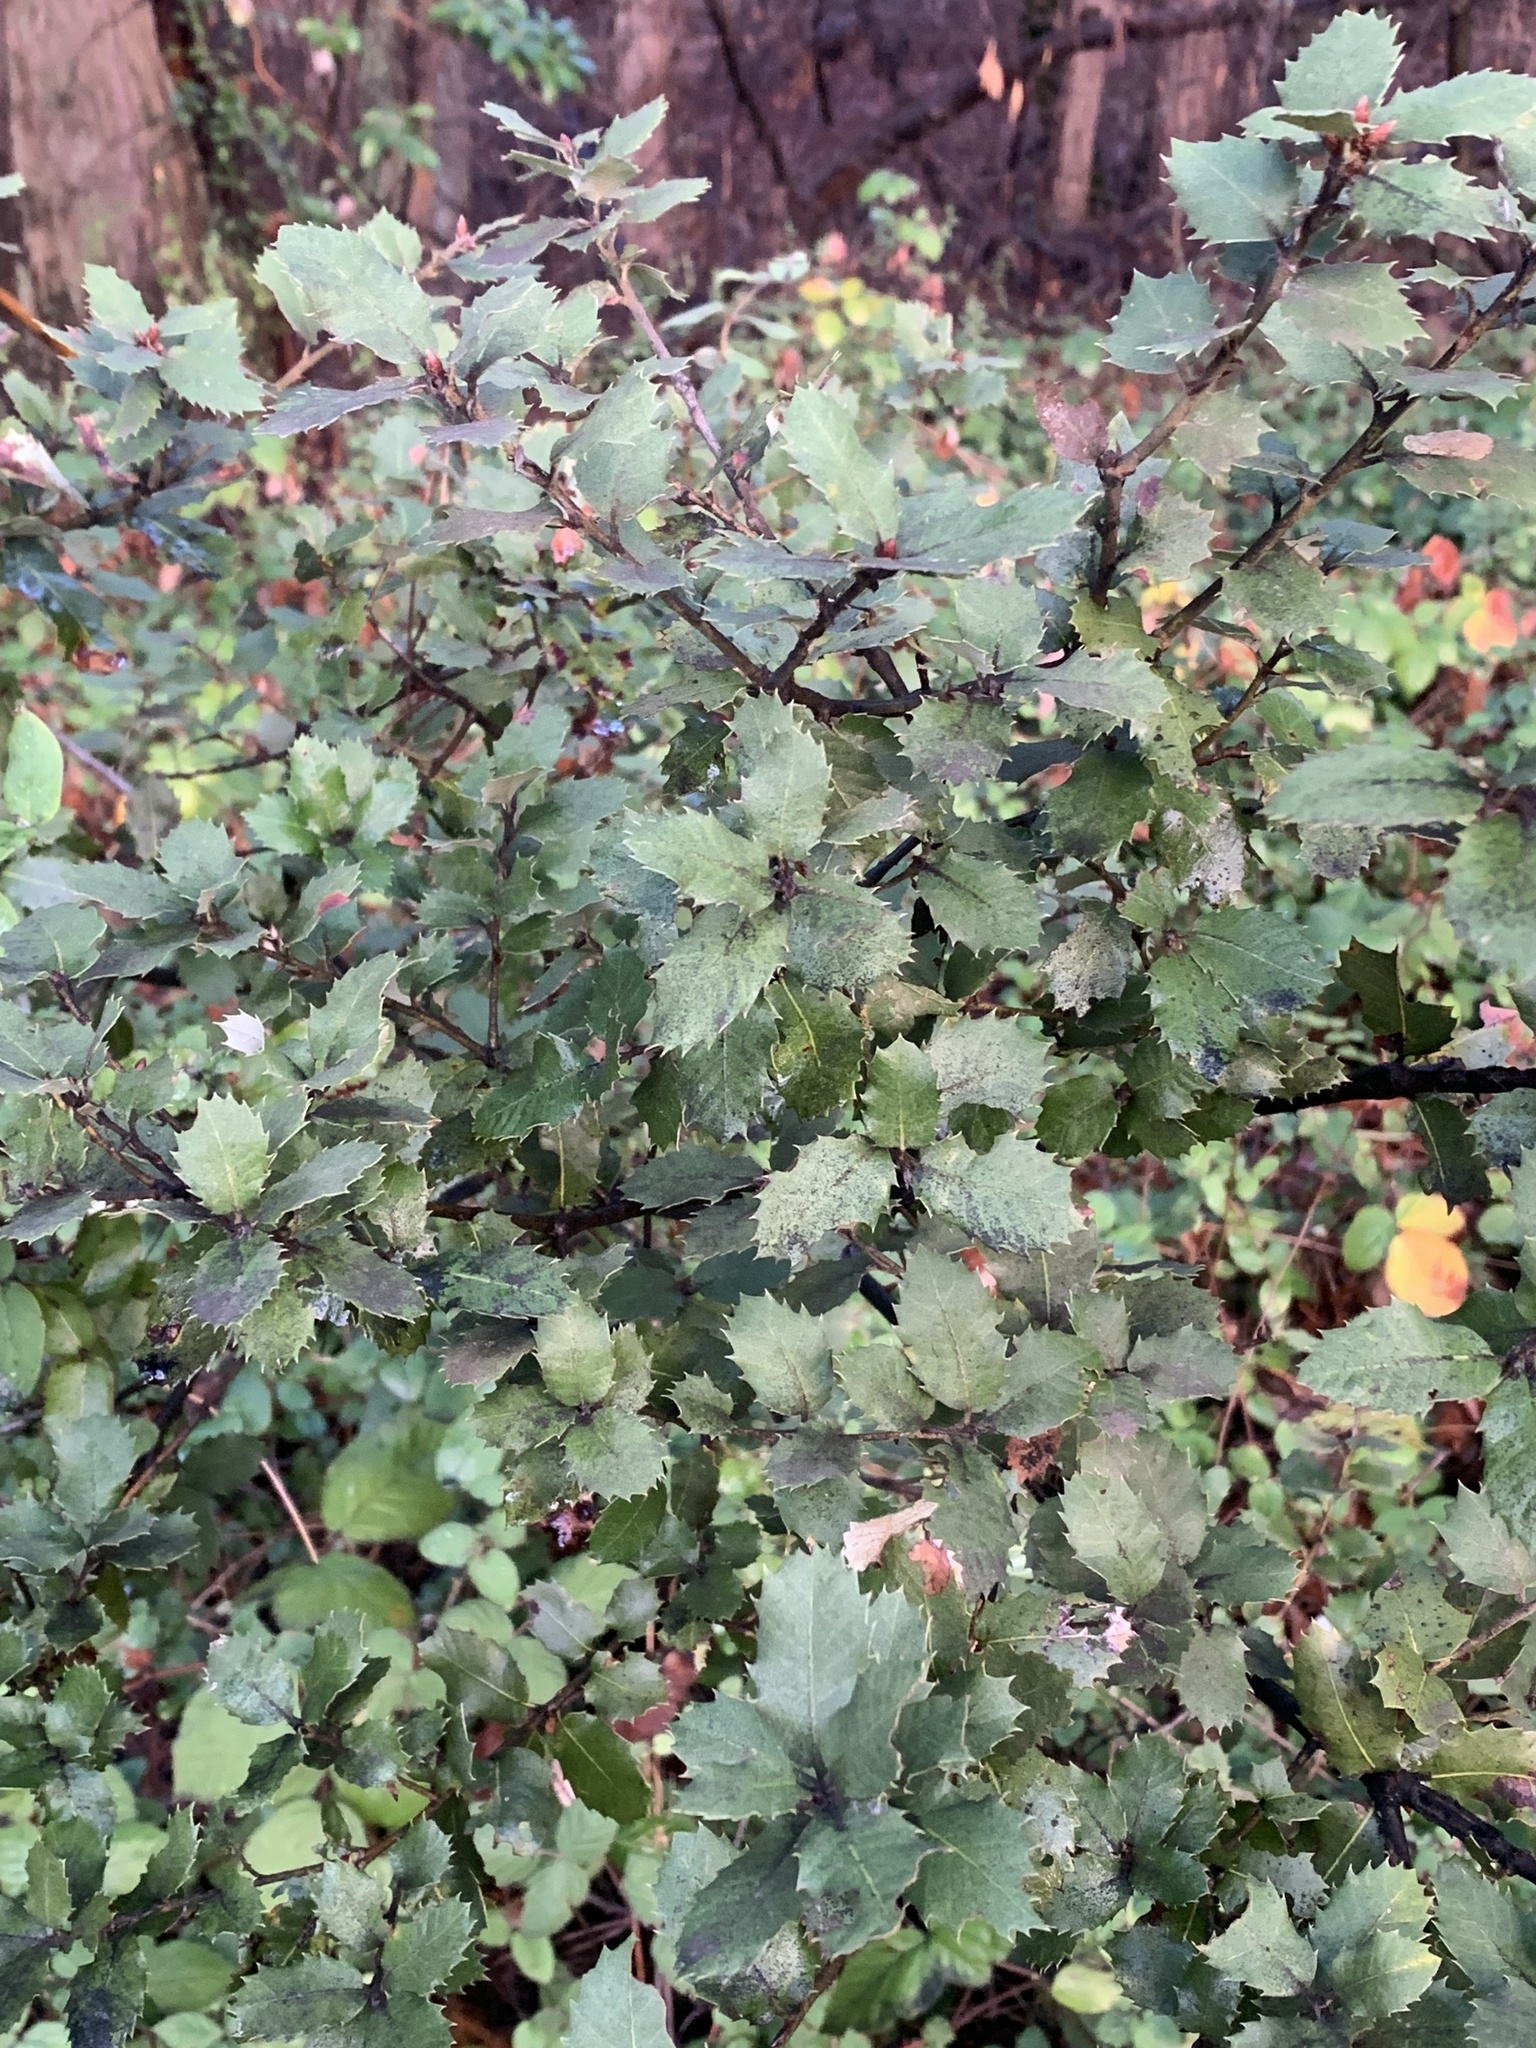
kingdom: Plantae
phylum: Tracheophyta
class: Magnoliopsida
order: Fagales
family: Fagaceae
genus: Quercus
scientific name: Quercus chrysolepis
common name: Canyon live oak
